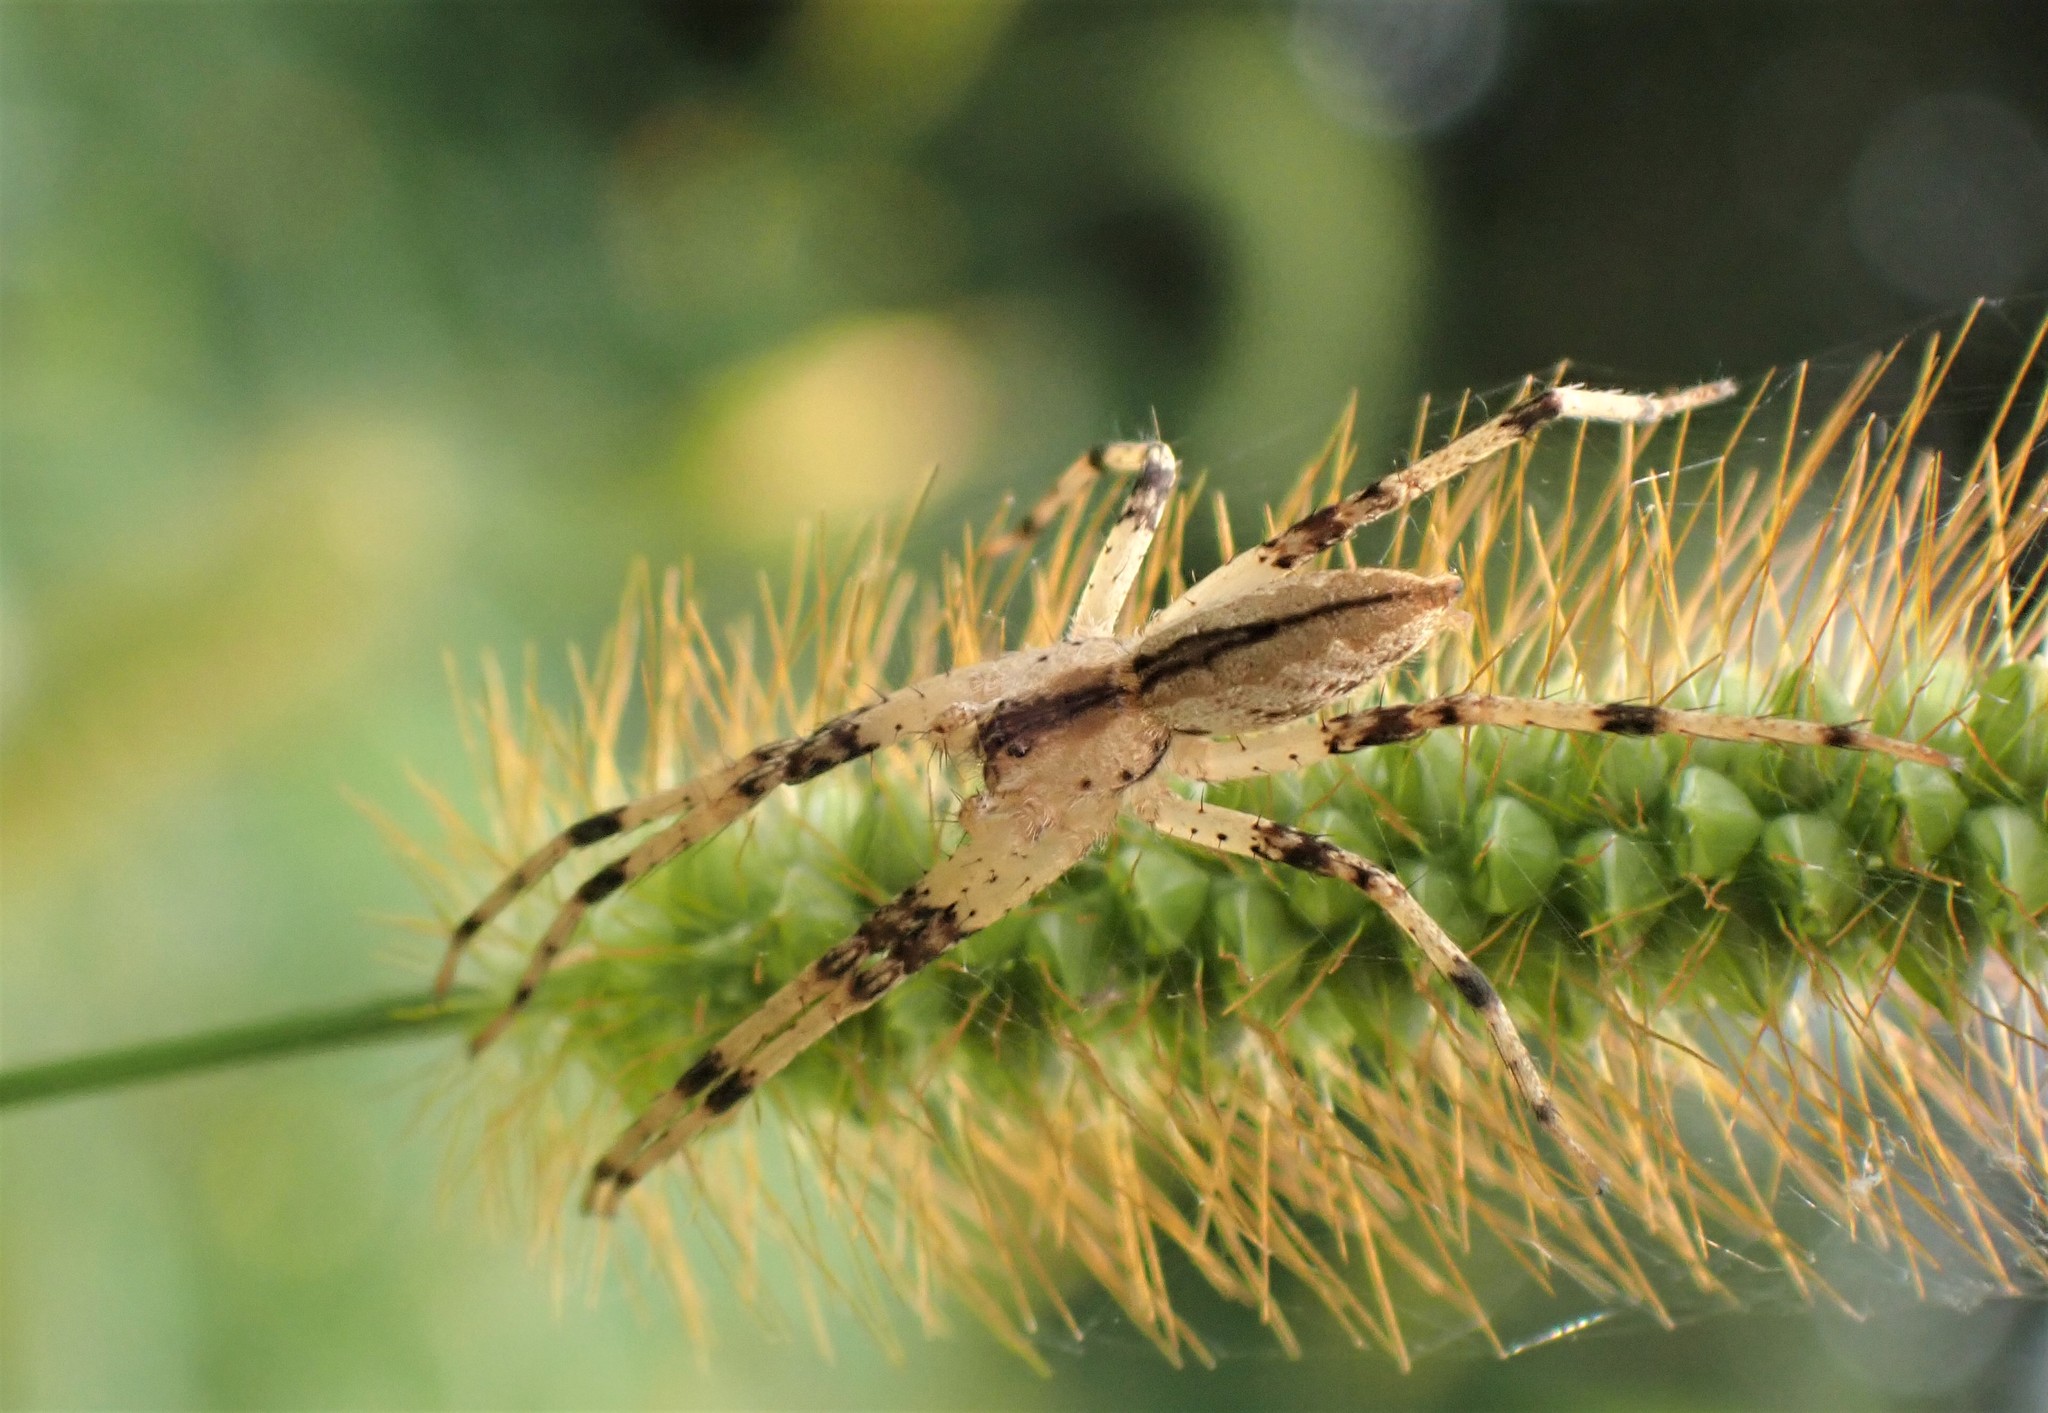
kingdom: Animalia
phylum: Arthropoda
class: Arachnida
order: Araneae
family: Pisauridae
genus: Pisaurina
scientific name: Pisaurina mira
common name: American nursery web spider
